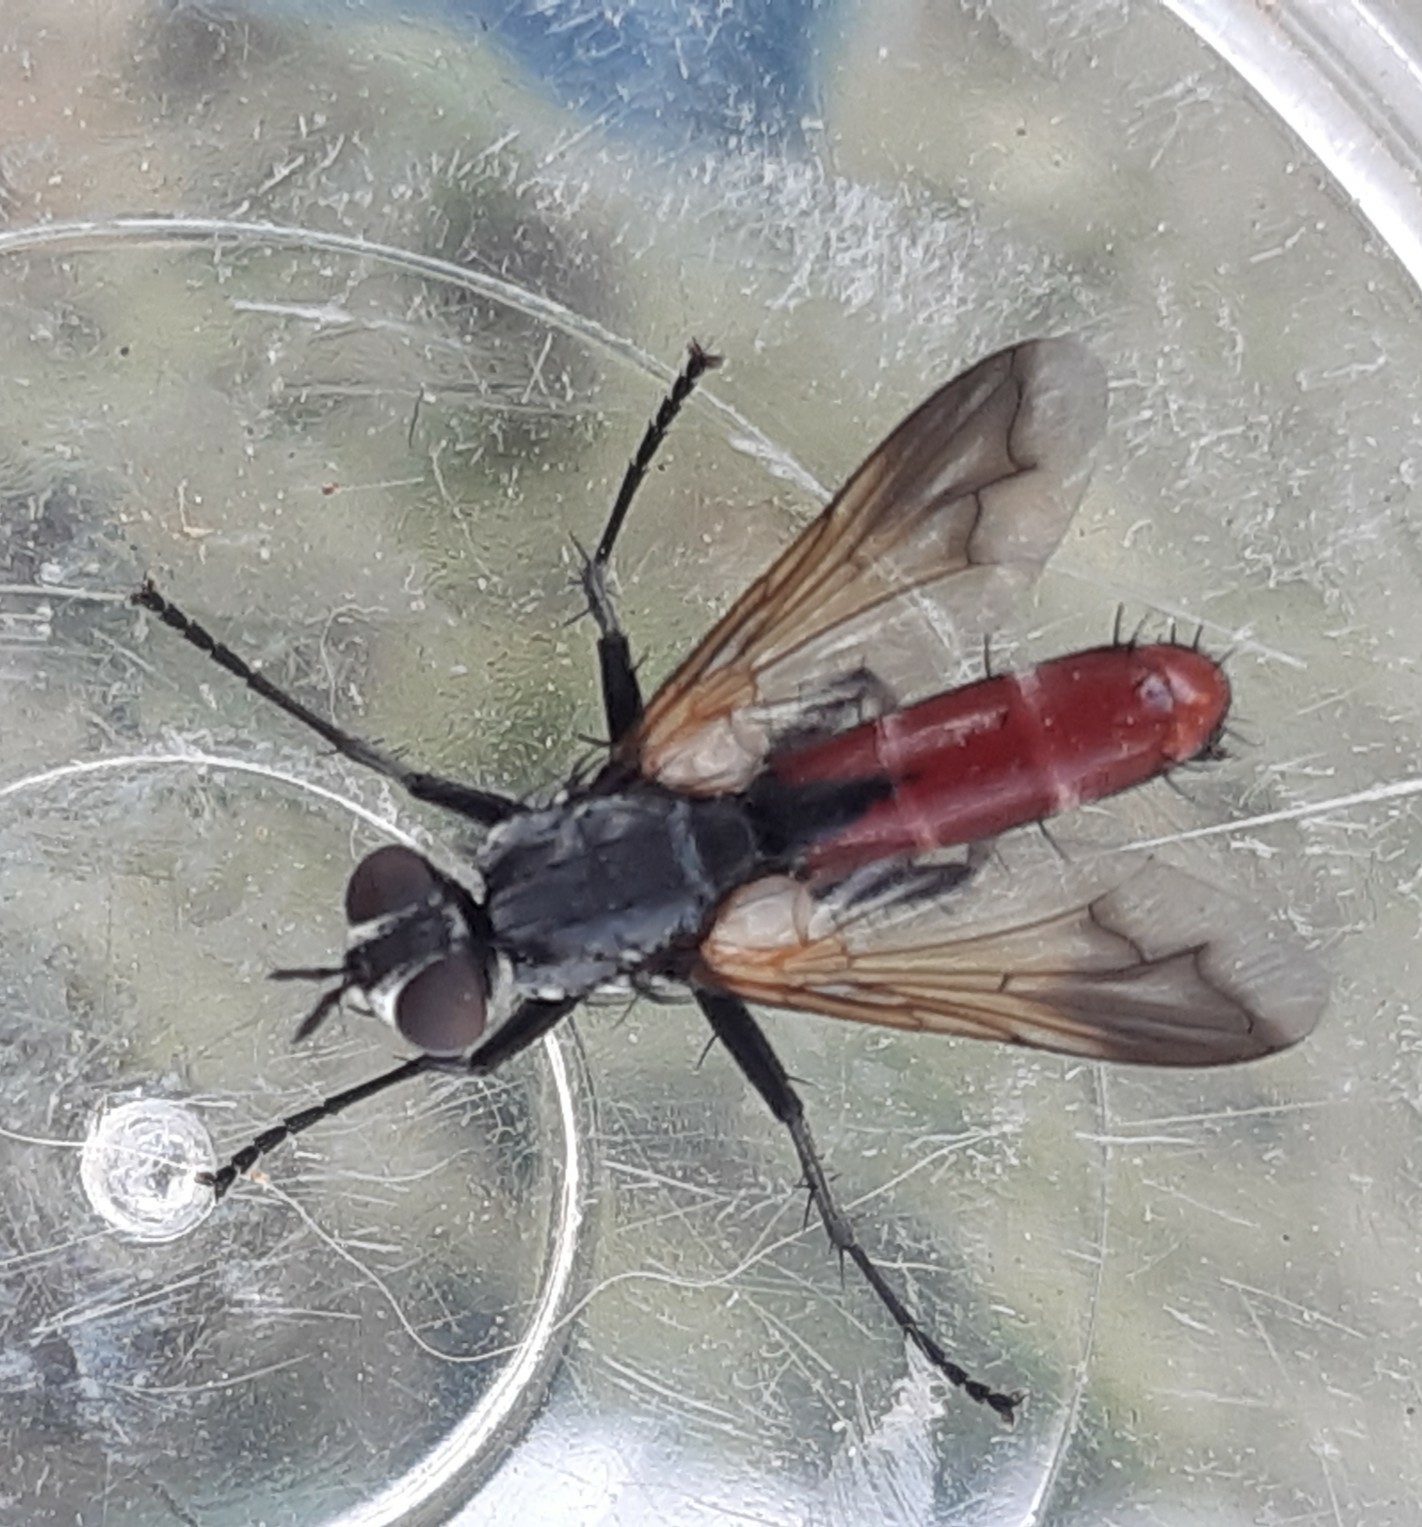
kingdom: Animalia
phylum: Arthropoda
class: Insecta
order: Diptera
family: Tachinidae
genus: Cylindromyia
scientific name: Cylindromyia bicolor
